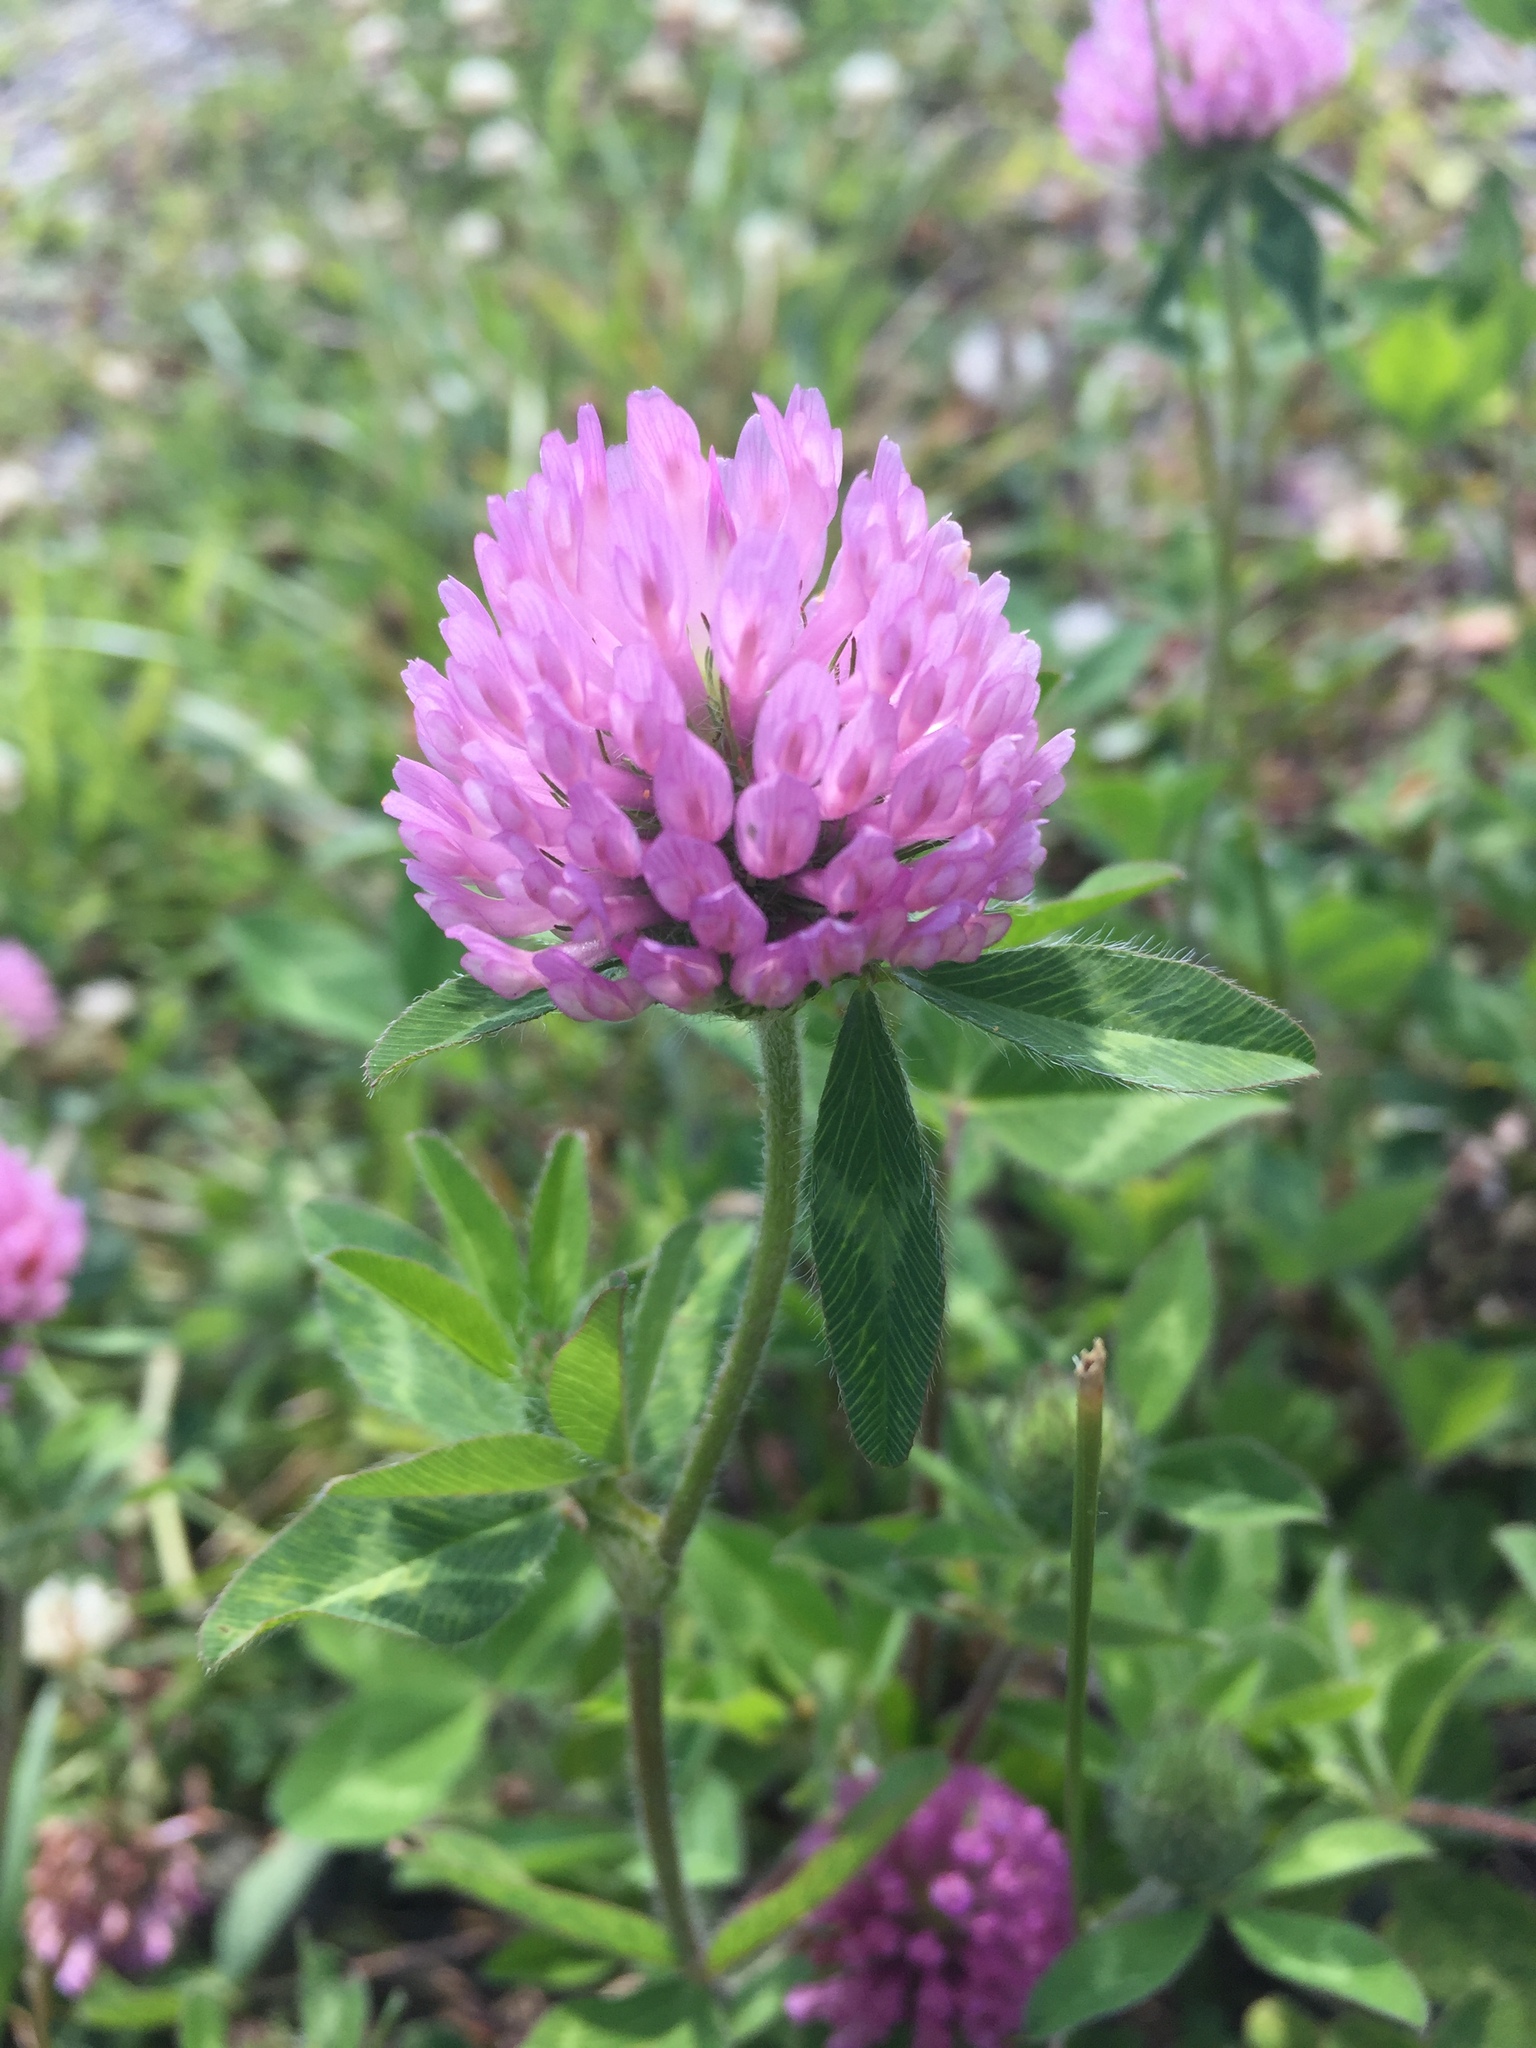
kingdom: Plantae
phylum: Tracheophyta
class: Magnoliopsida
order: Fabales
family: Fabaceae
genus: Trifolium
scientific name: Trifolium pratense
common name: Red clover
